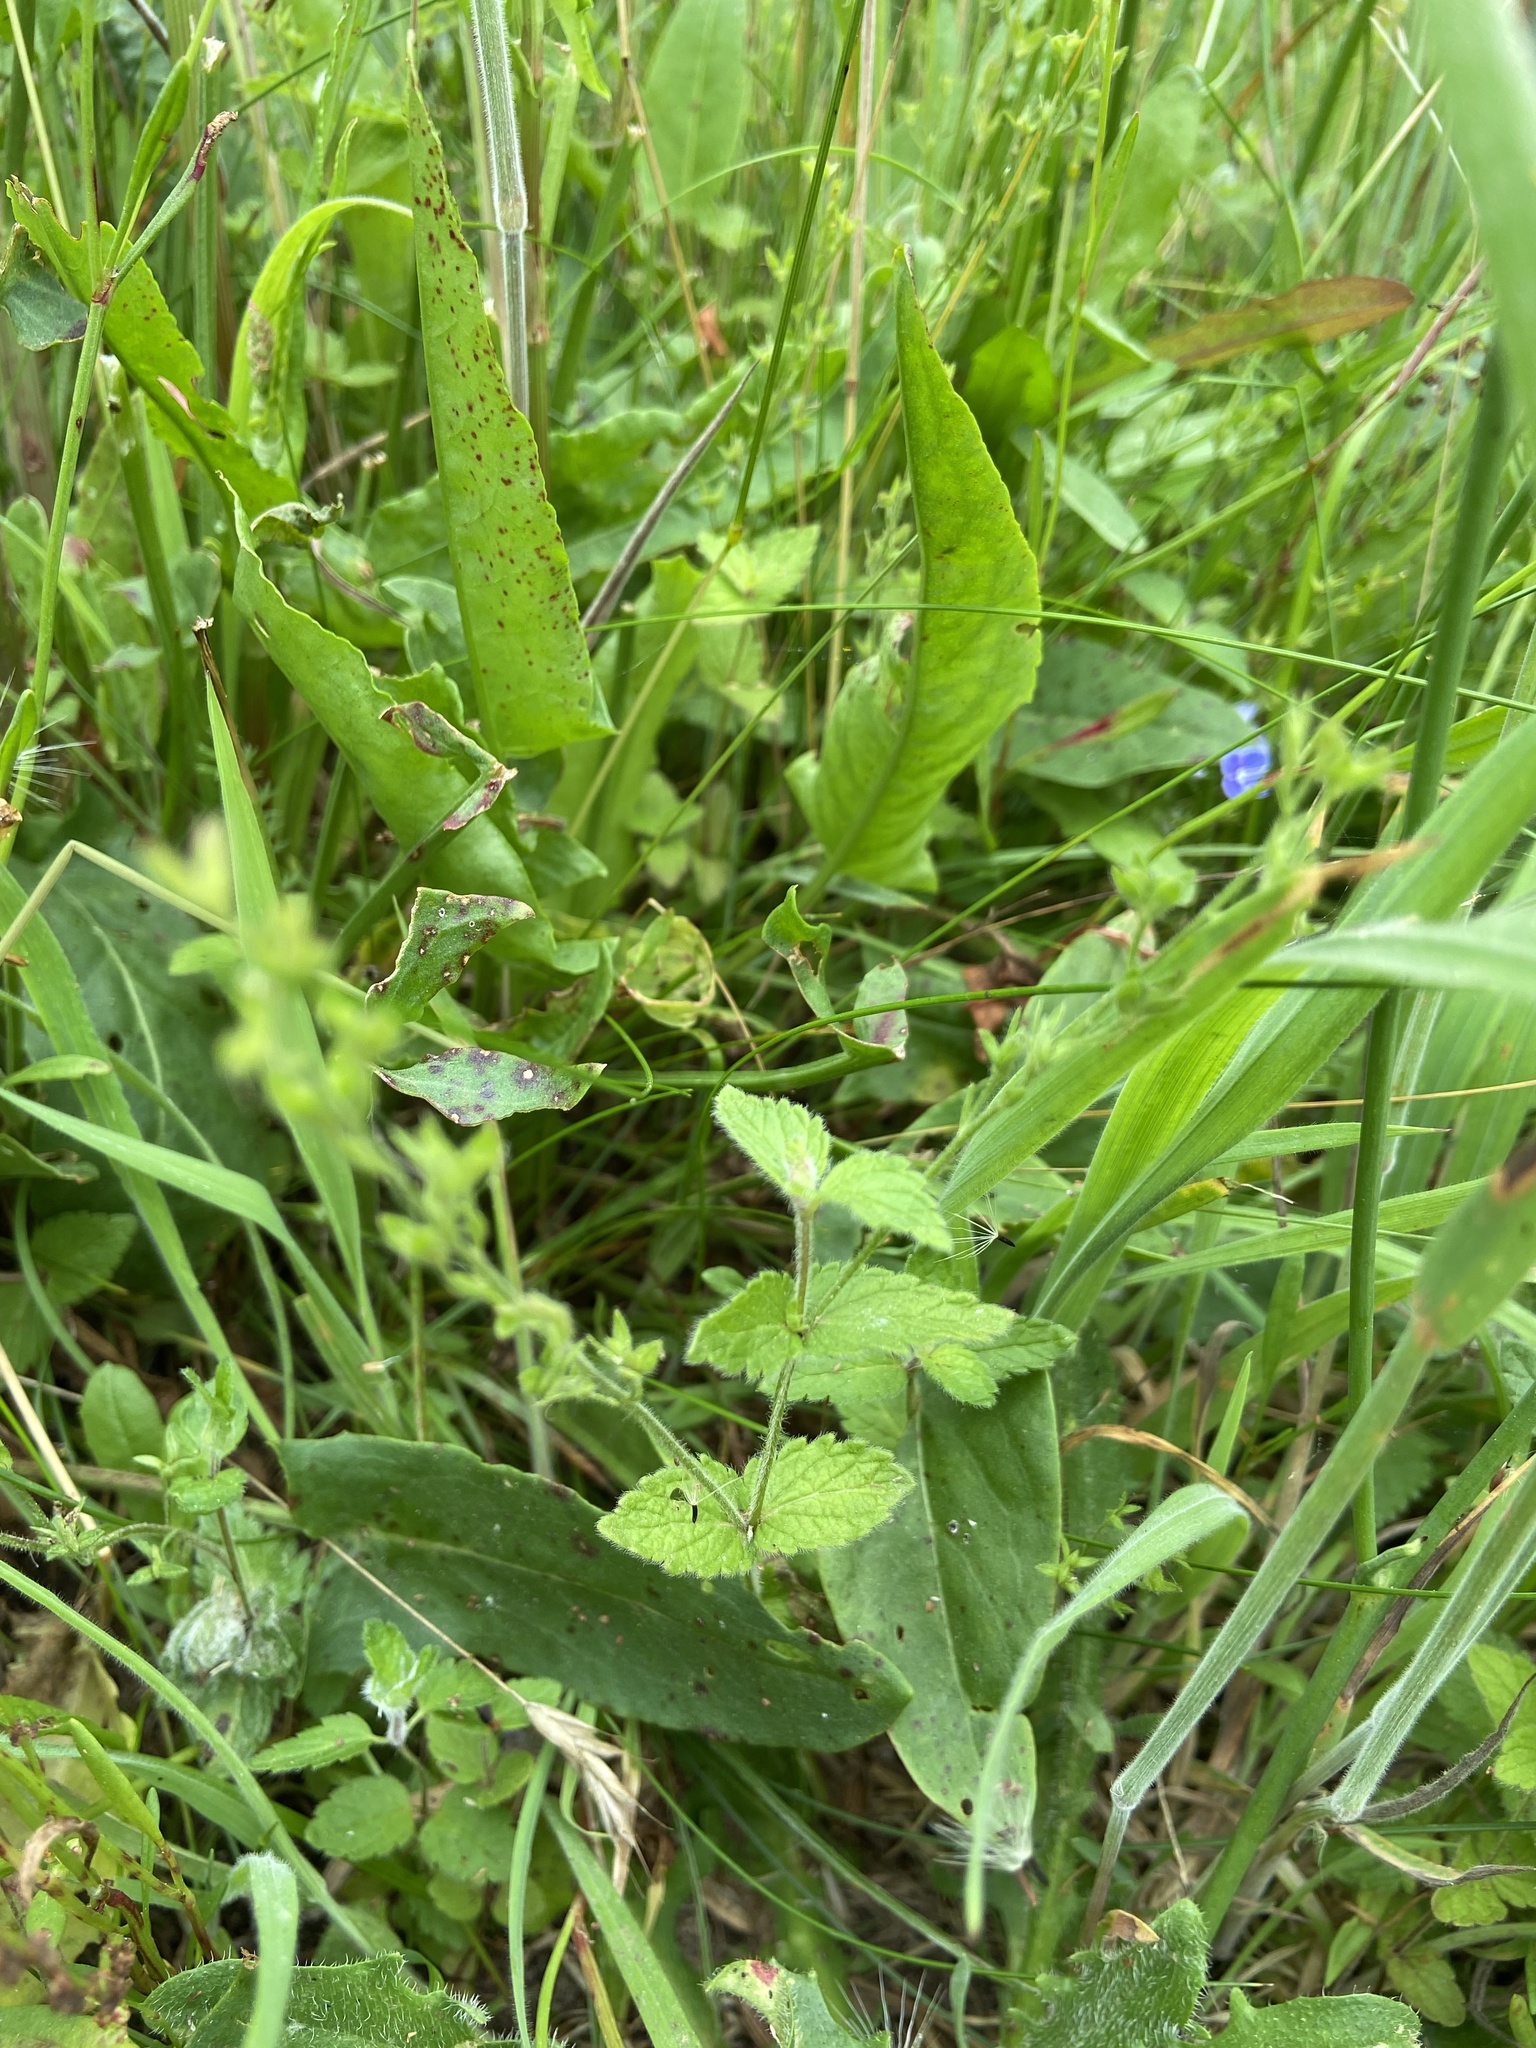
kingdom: Plantae
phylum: Tracheophyta
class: Magnoliopsida
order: Lamiales
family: Plantaginaceae
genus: Veronica
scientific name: Veronica chamaedrys
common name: Germander speedwell
